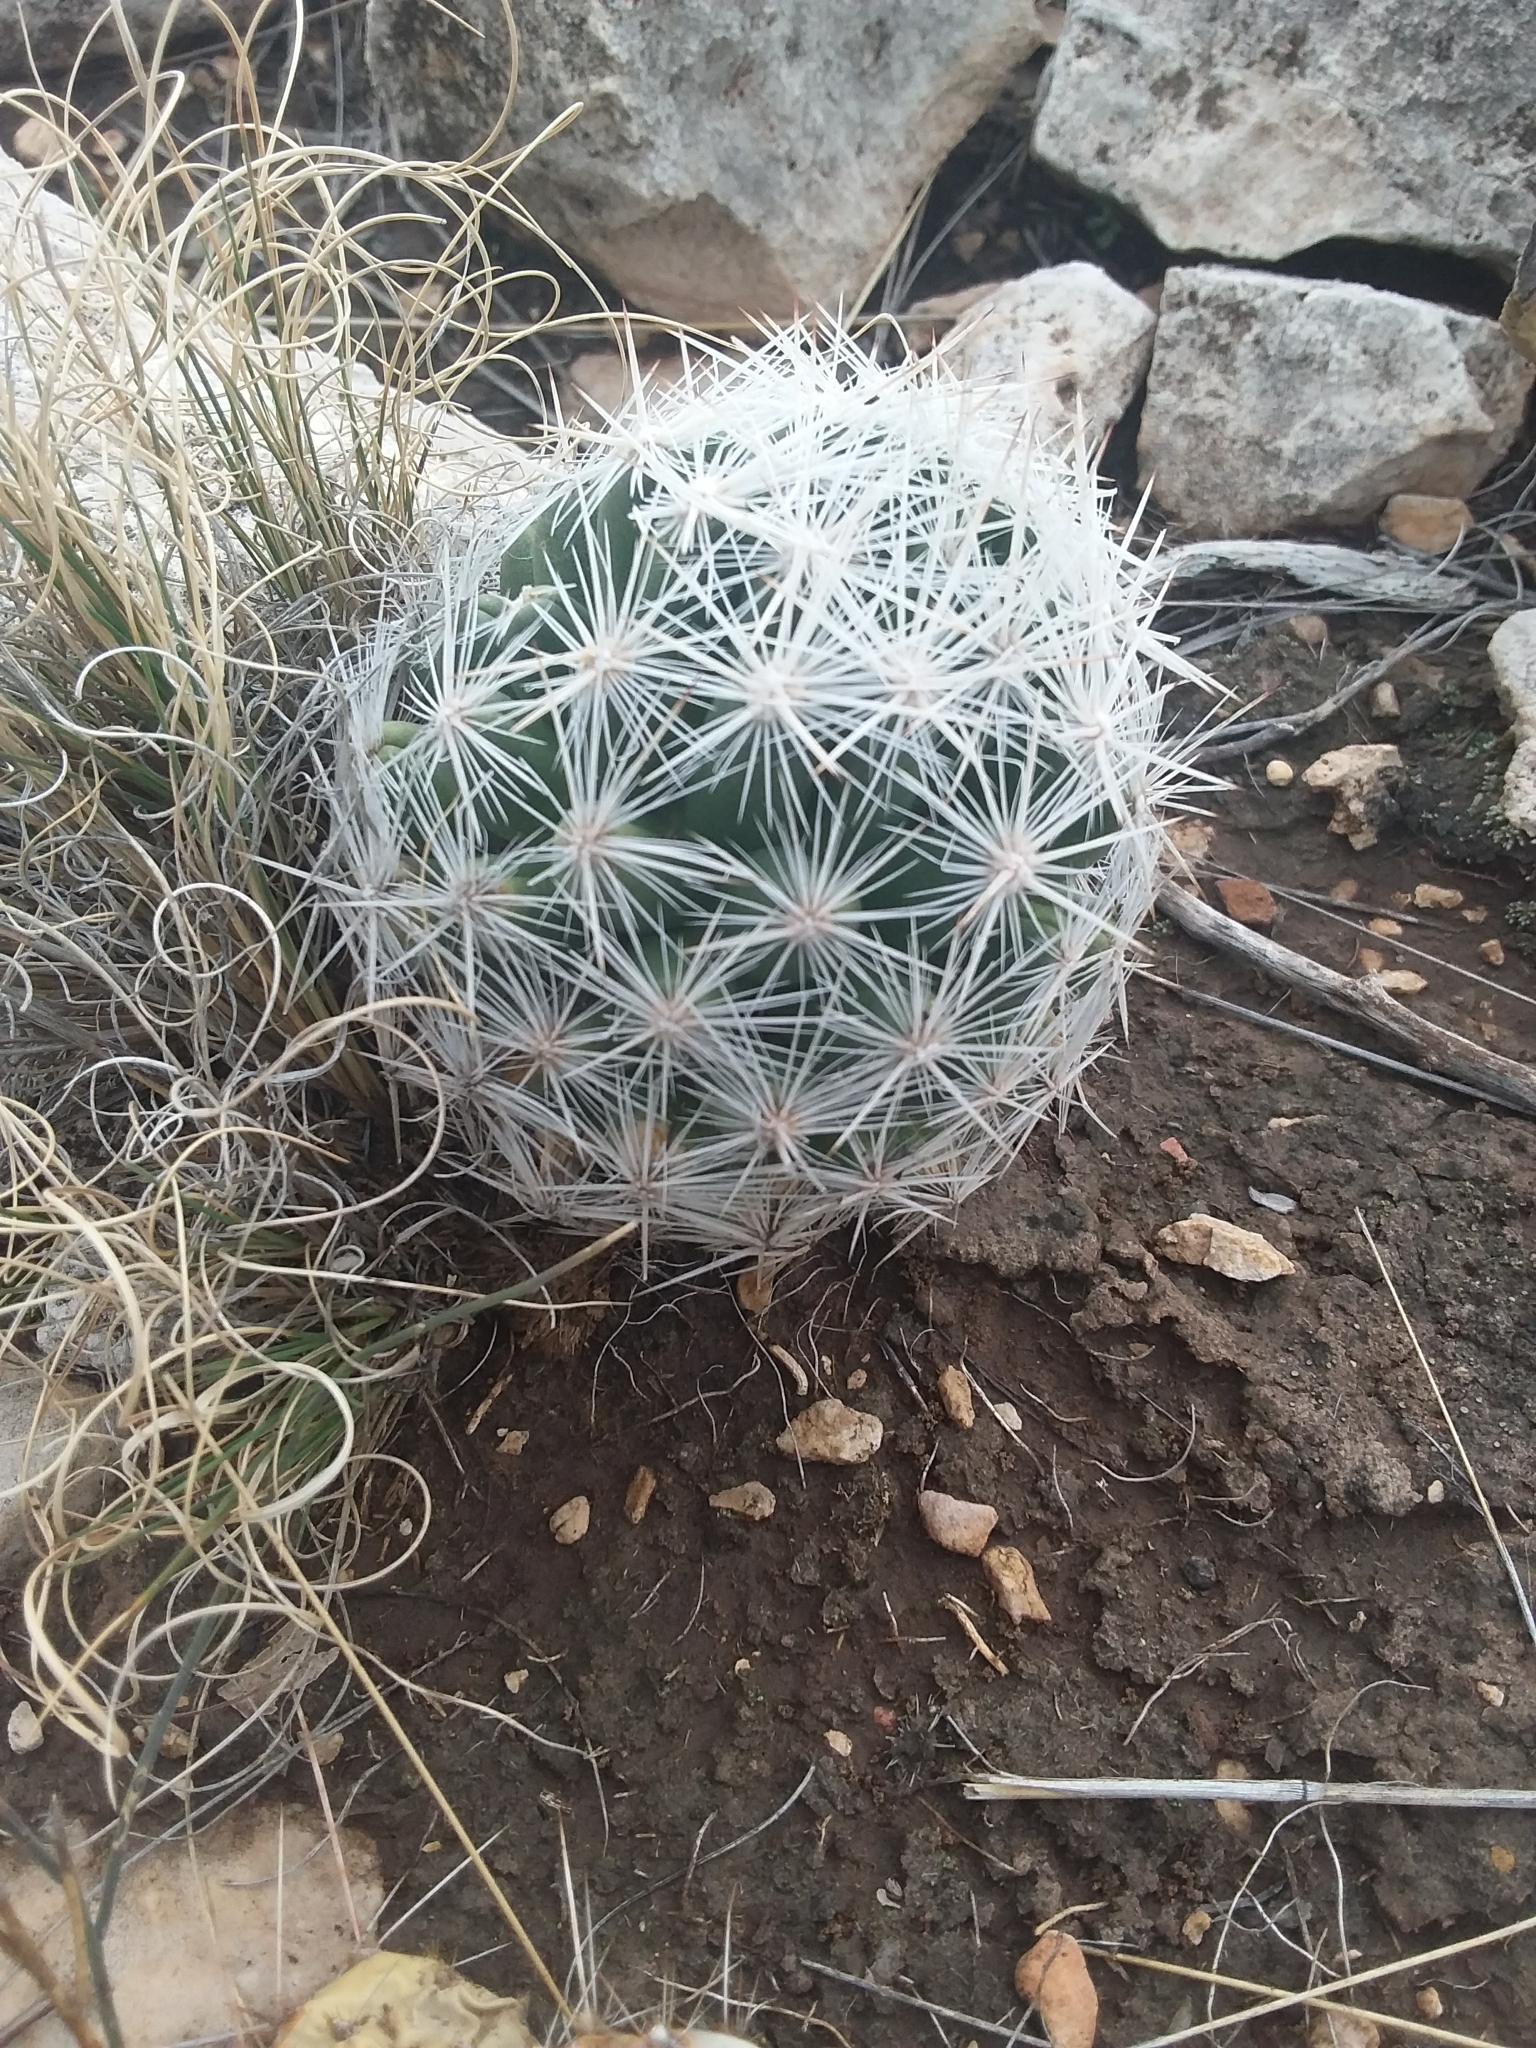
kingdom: Plantae
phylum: Tracheophyta
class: Magnoliopsida
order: Caryophyllales
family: Cactaceae
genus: Pelecyphora
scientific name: Pelecyphora vivipara
